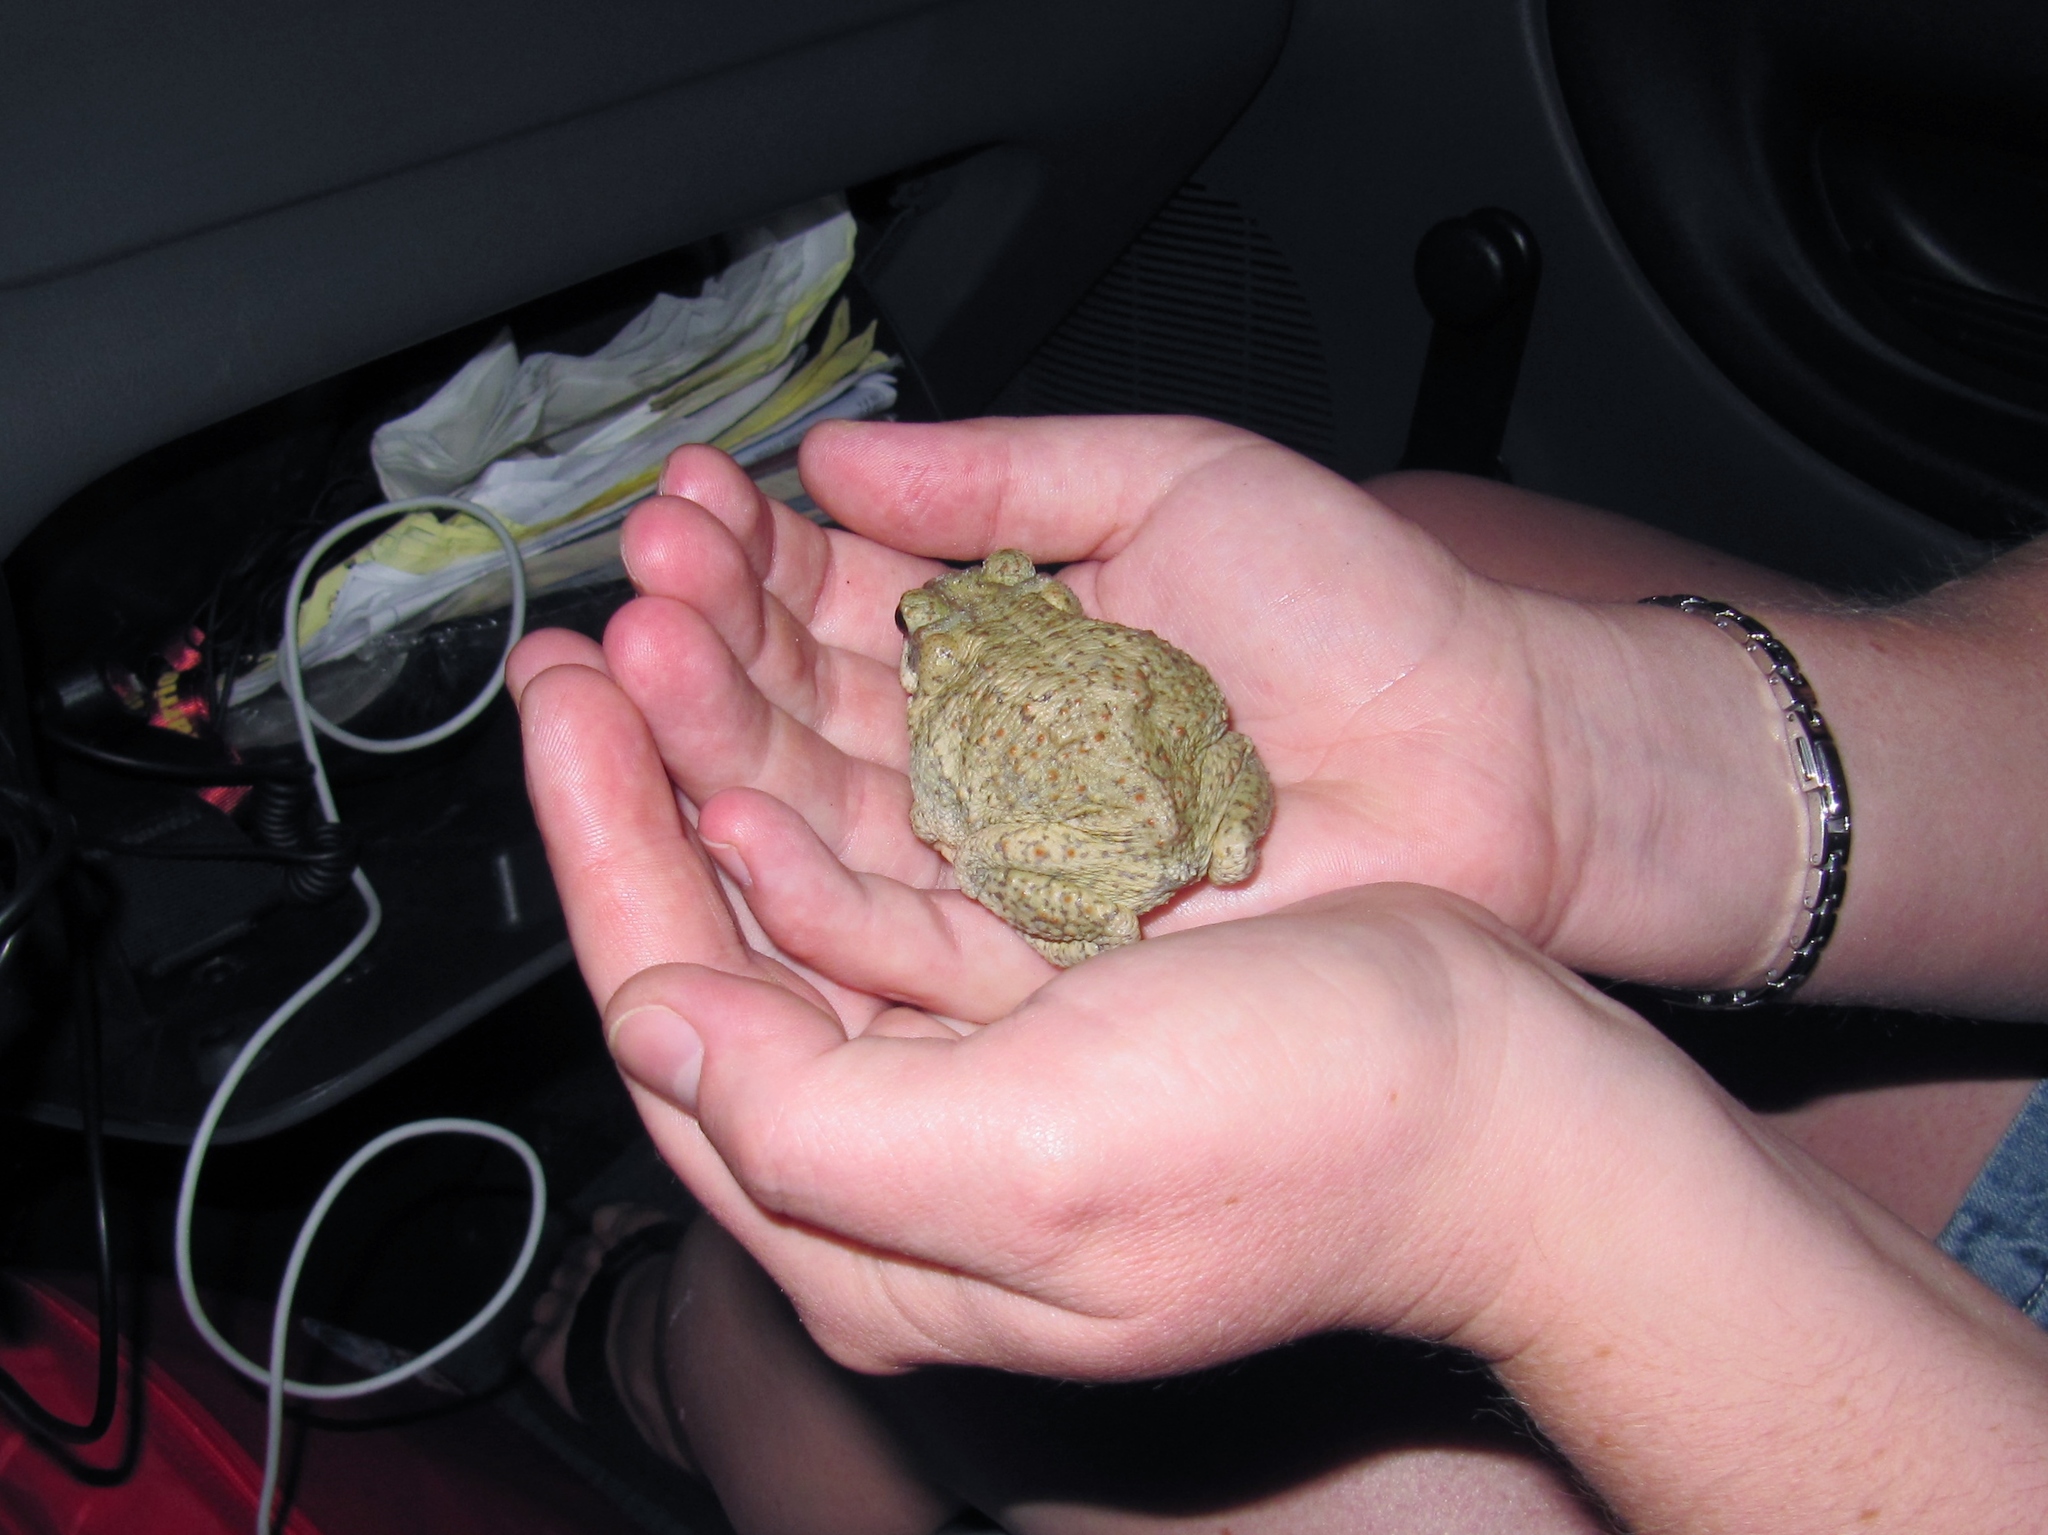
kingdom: Animalia
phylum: Chordata
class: Amphibia
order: Anura
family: Bufonidae
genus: Anaxyrus
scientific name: Anaxyrus punctatus
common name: Red-spotted toad
